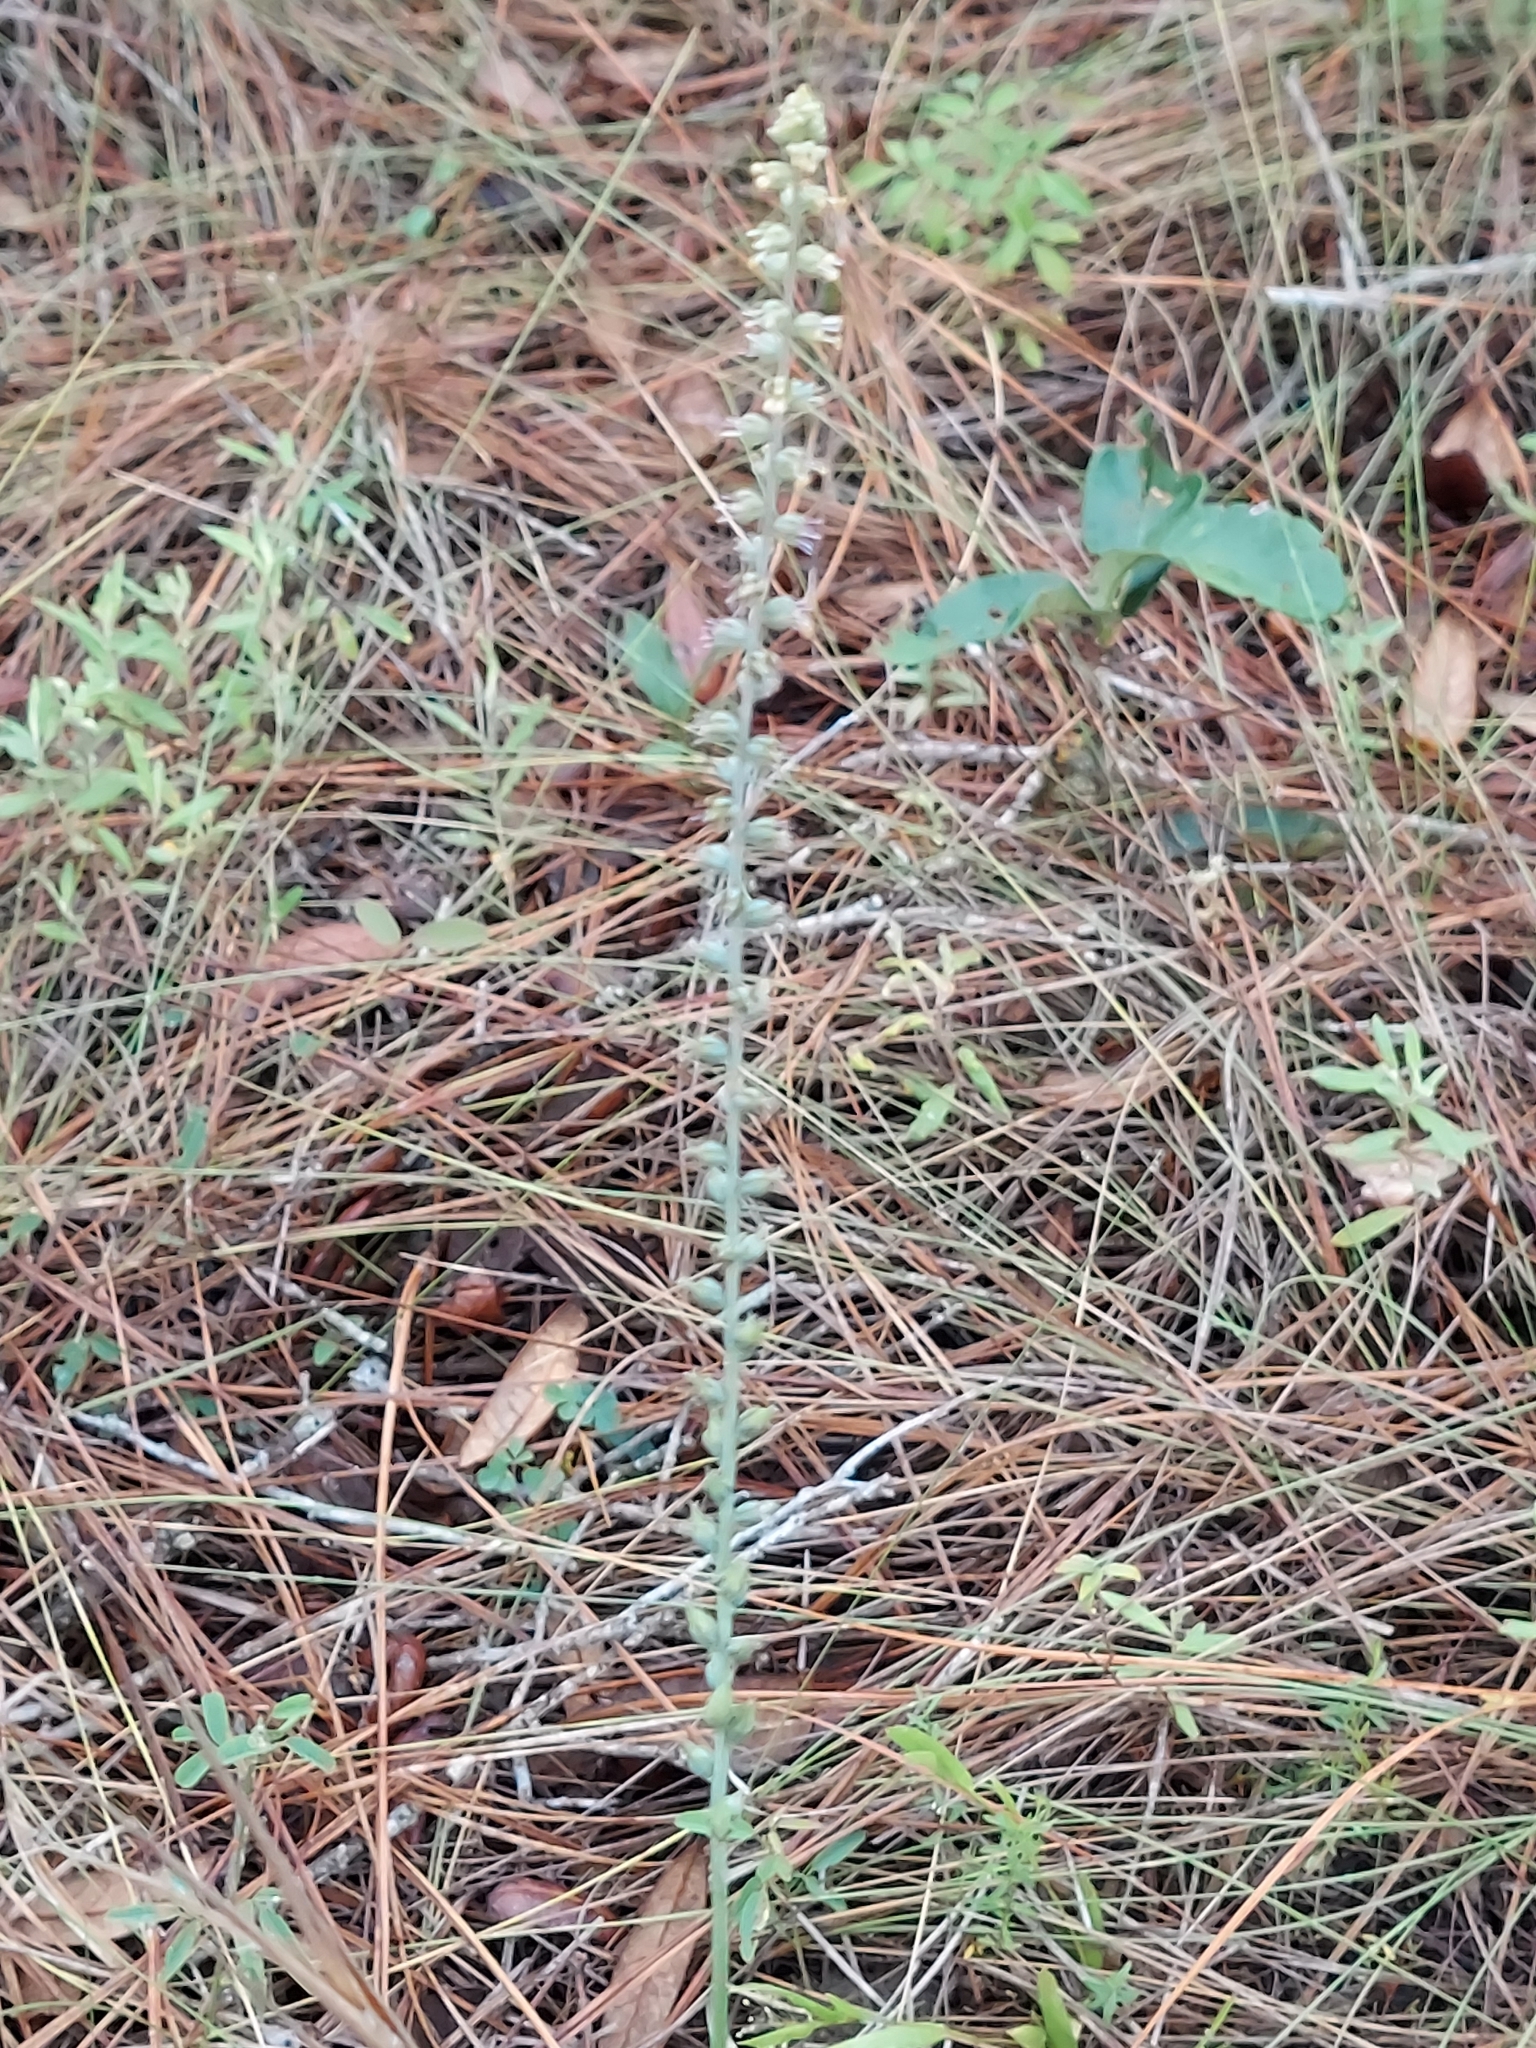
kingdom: Plantae
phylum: Tracheophyta
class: Liliopsida
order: Liliales
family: Melanthiaceae
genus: Schoenocaulon
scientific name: Schoenocaulon dubium
